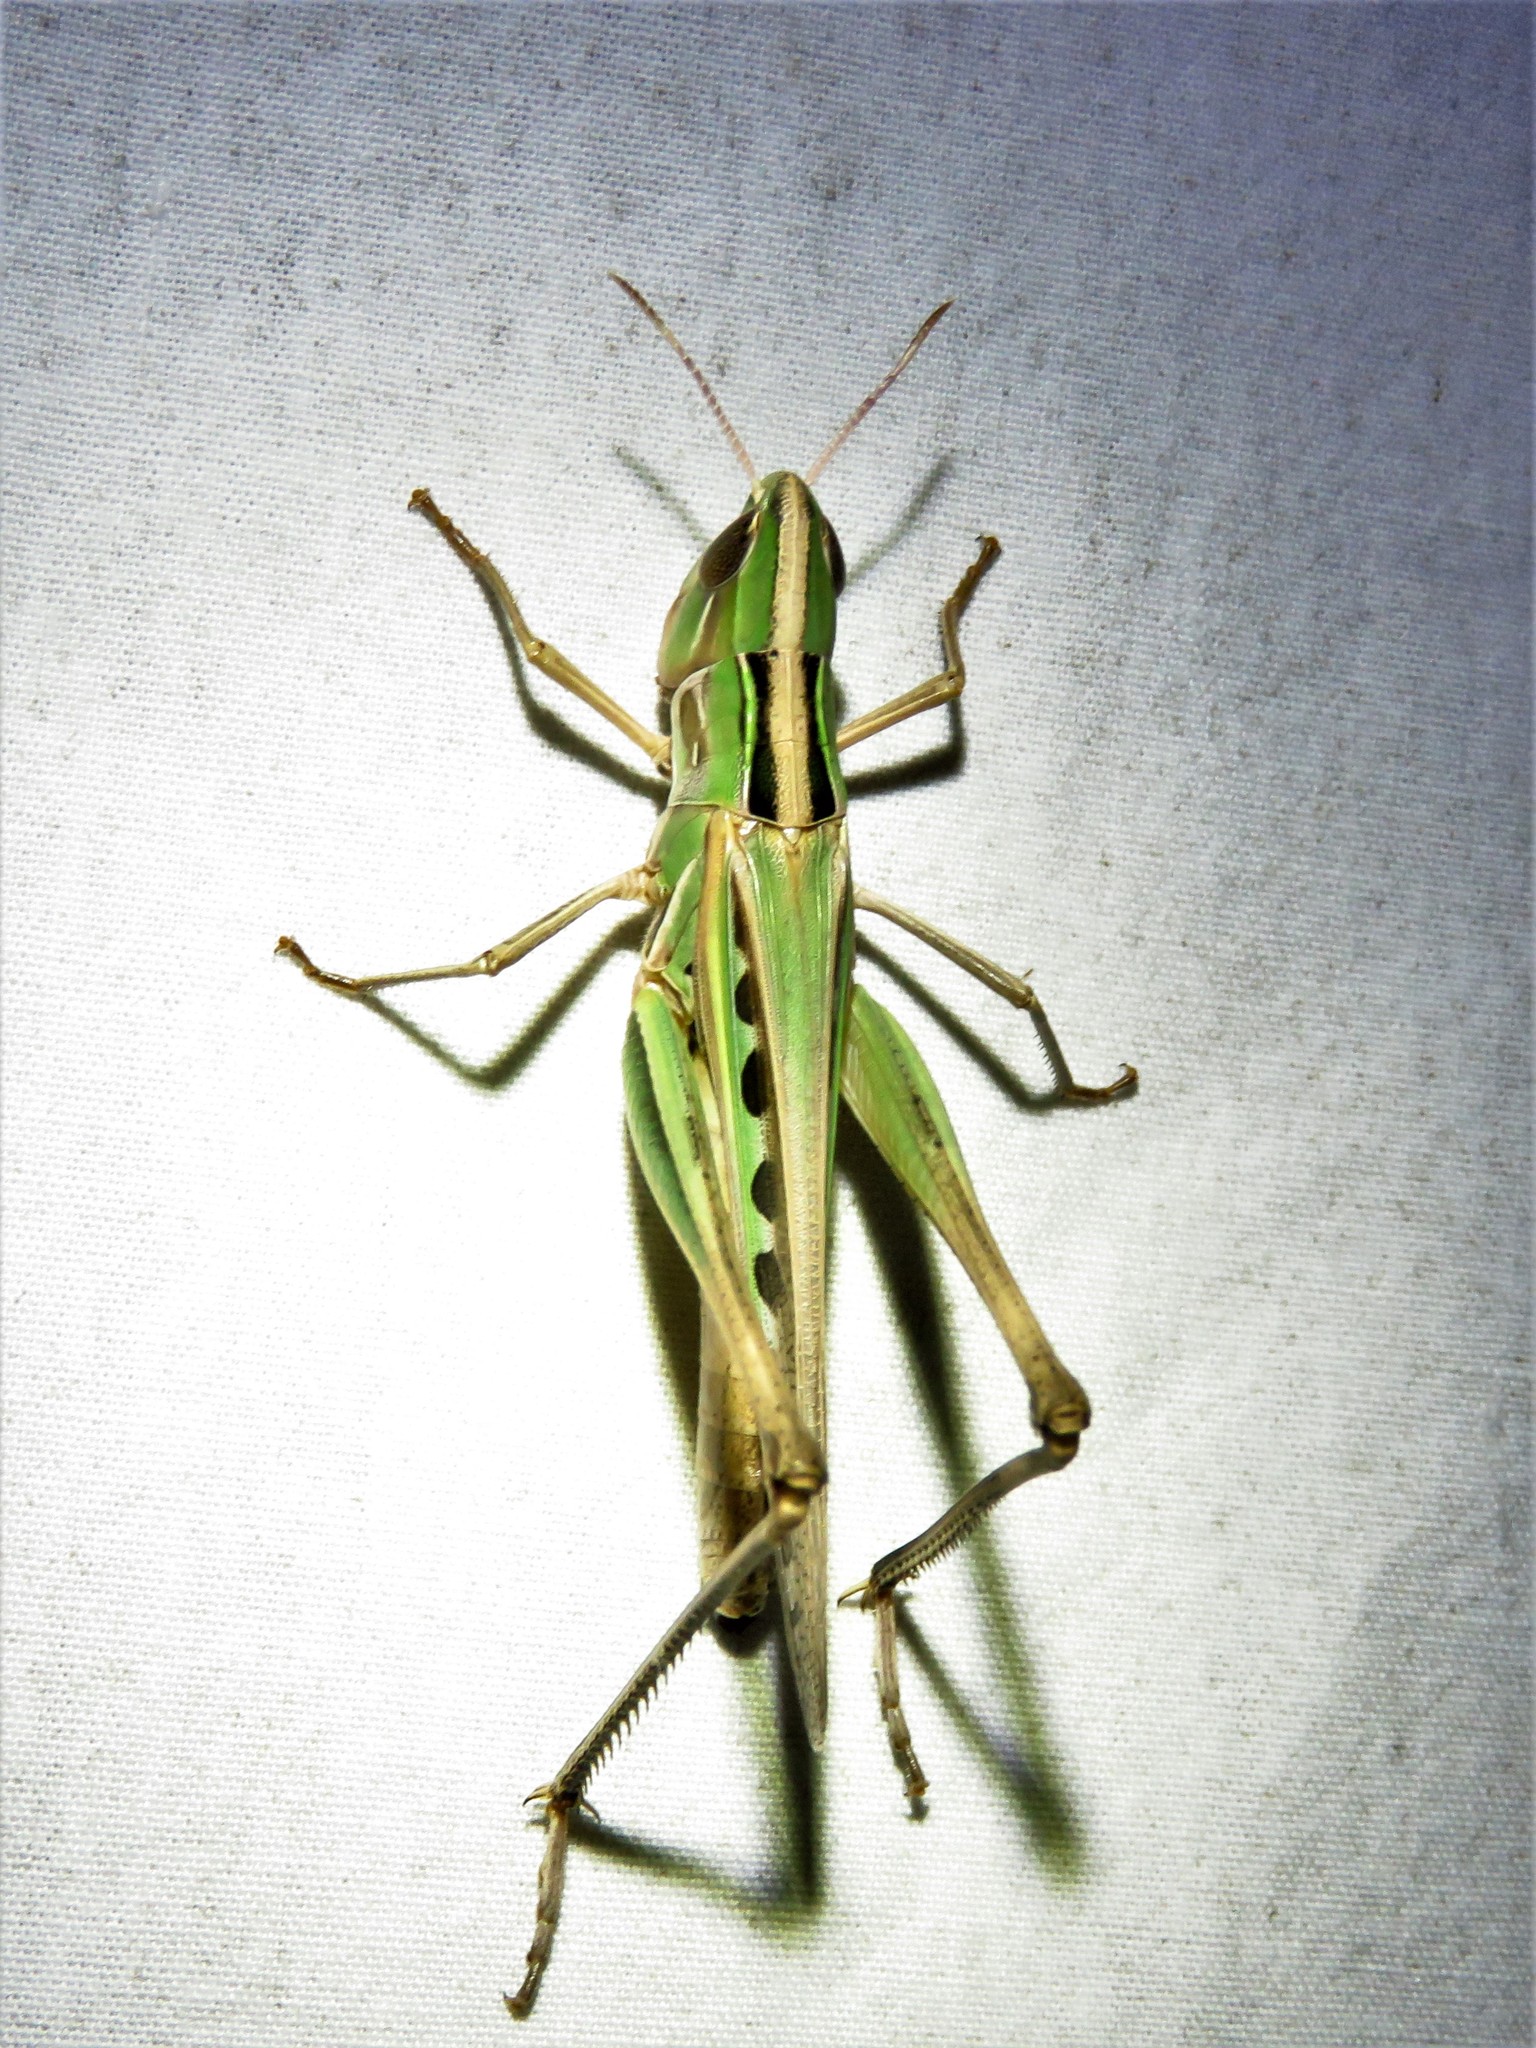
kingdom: Animalia
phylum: Arthropoda
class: Insecta
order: Orthoptera
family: Acrididae
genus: Syrbula
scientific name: Syrbula admirabilis
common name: Handsome grasshopper
